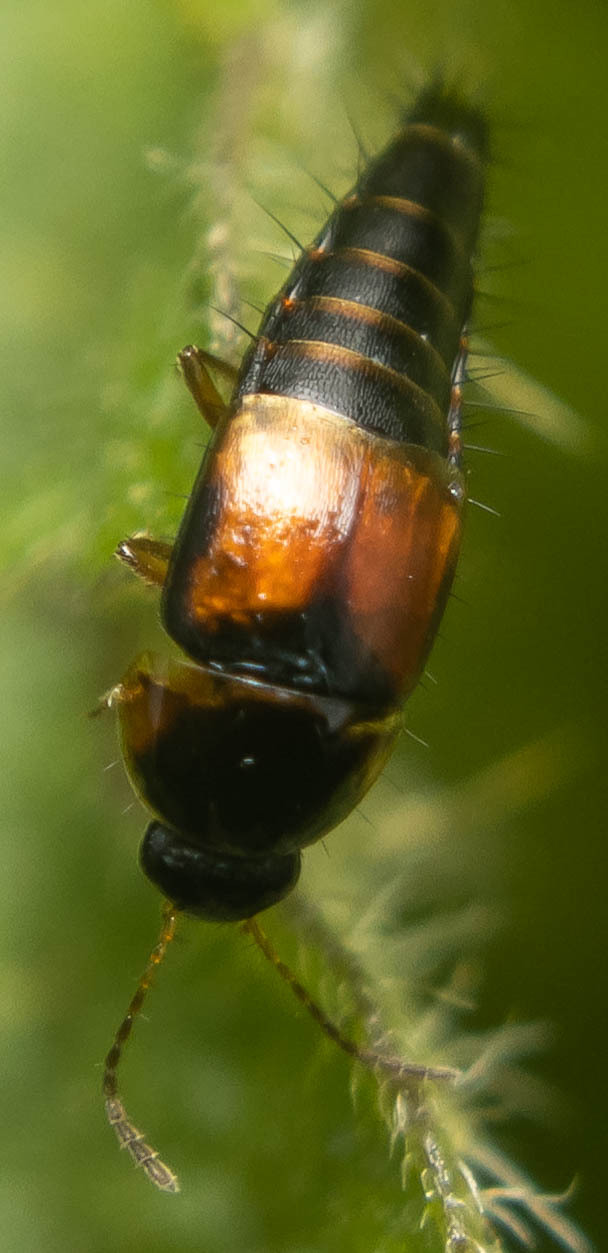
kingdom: Animalia
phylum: Arthropoda
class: Insecta
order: Coleoptera
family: Staphylinidae
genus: Tachyporus
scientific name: Tachyporus hypnorum
